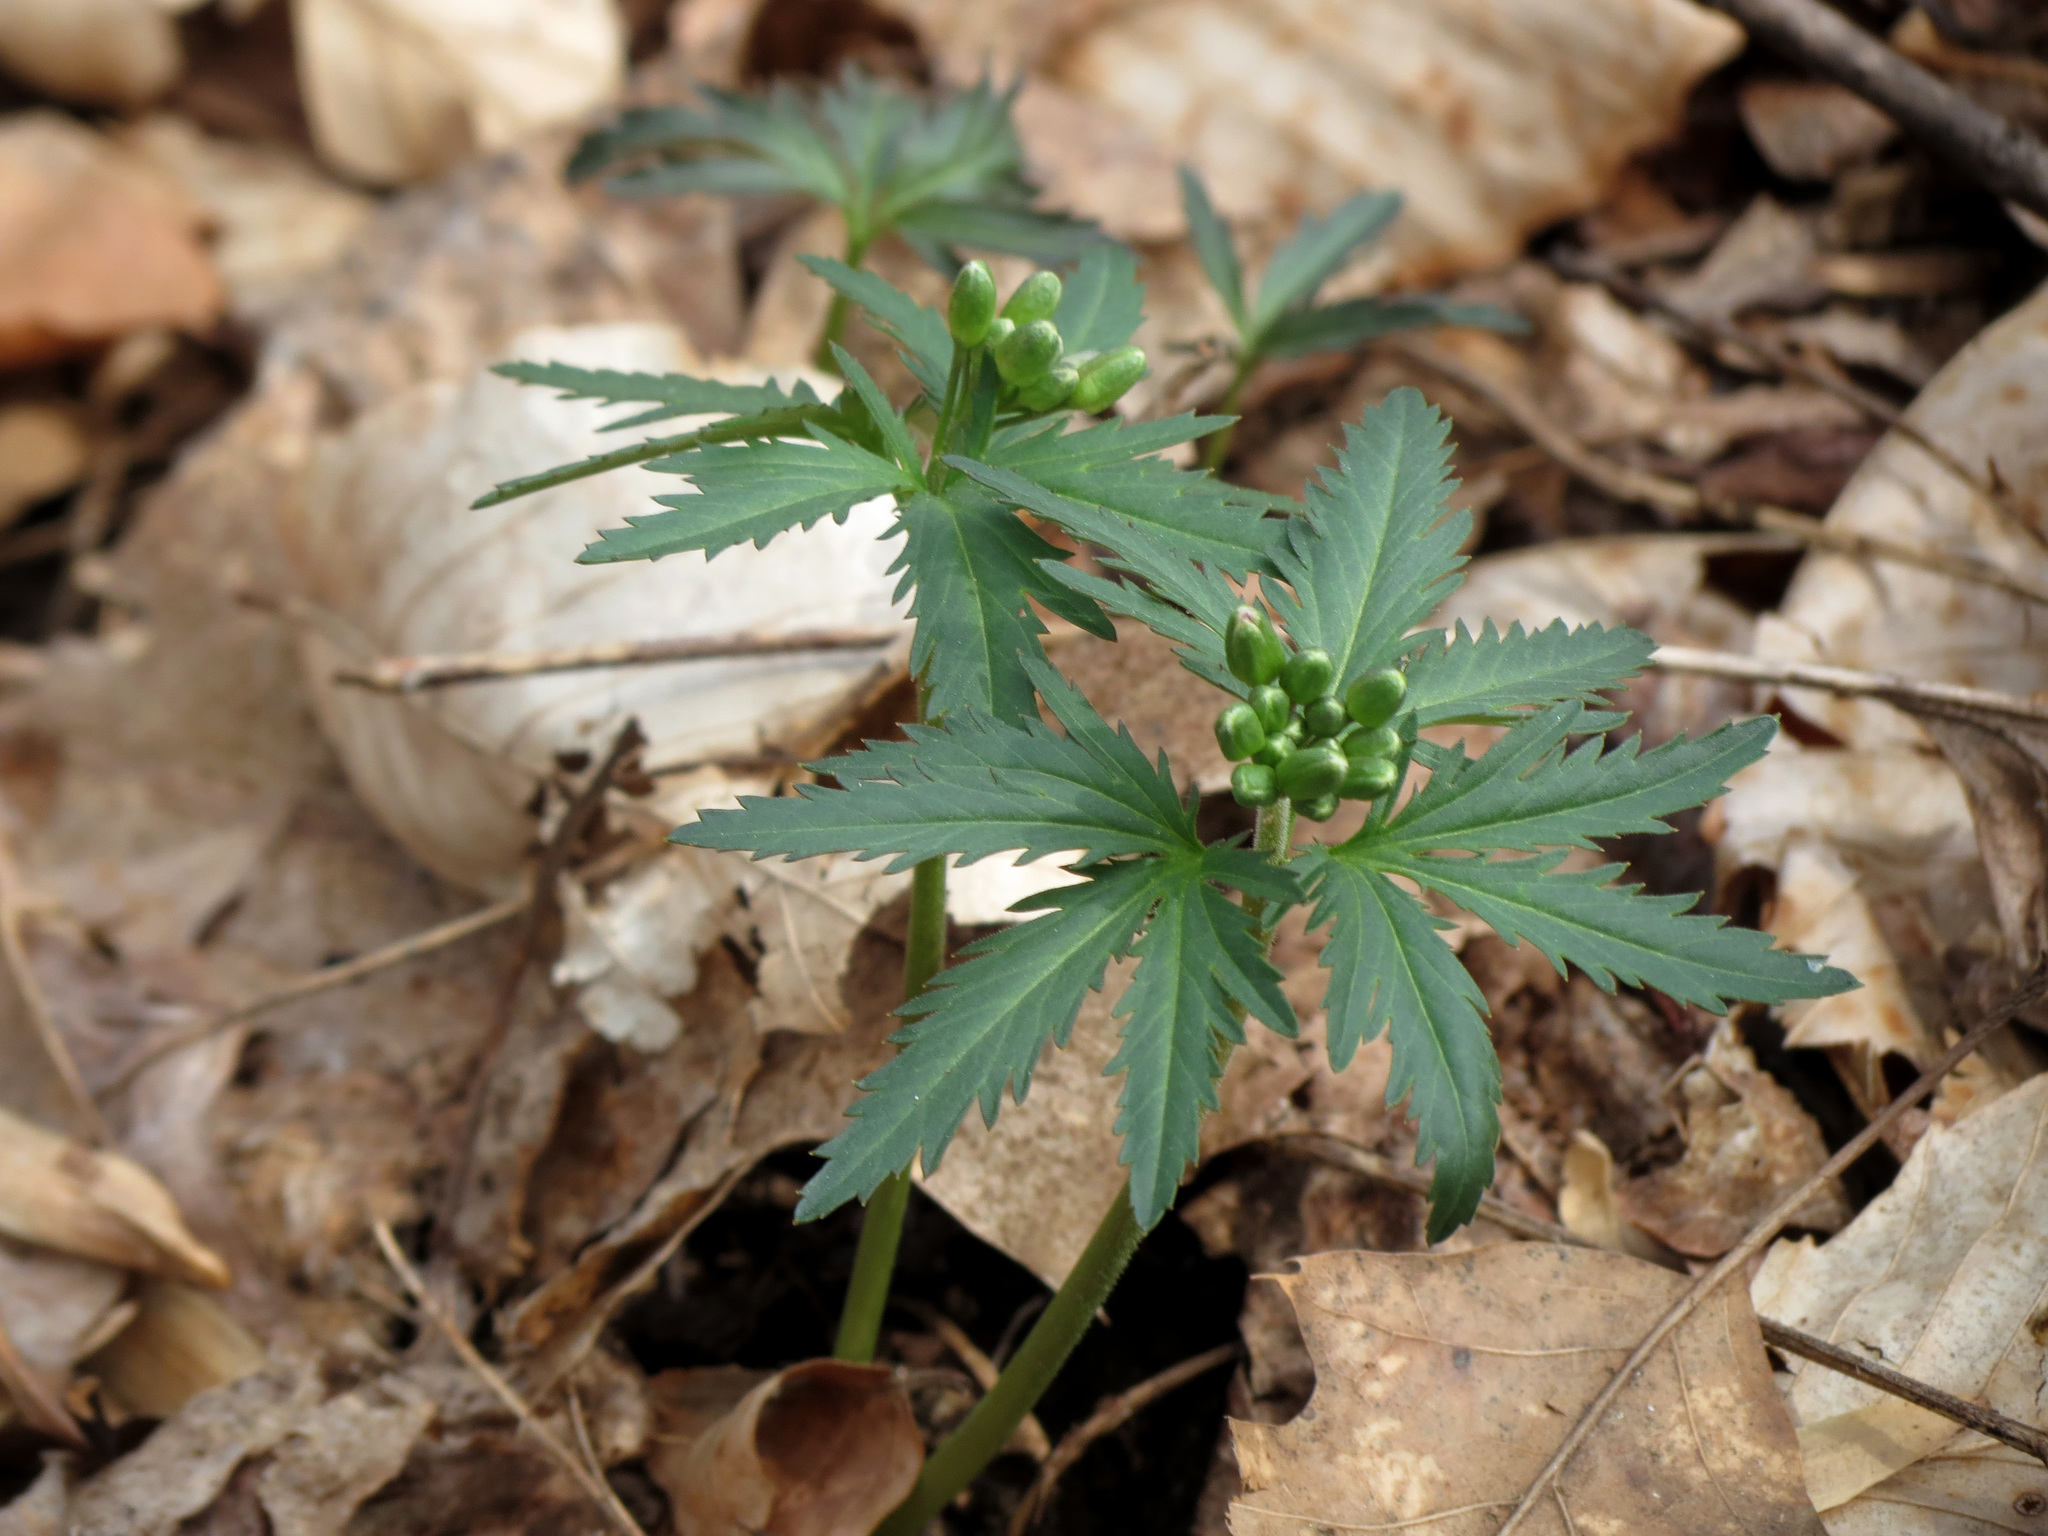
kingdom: Plantae
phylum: Tracheophyta
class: Magnoliopsida
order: Brassicales
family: Brassicaceae
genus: Cardamine
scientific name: Cardamine concatenata
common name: Cut-leaf toothcup
